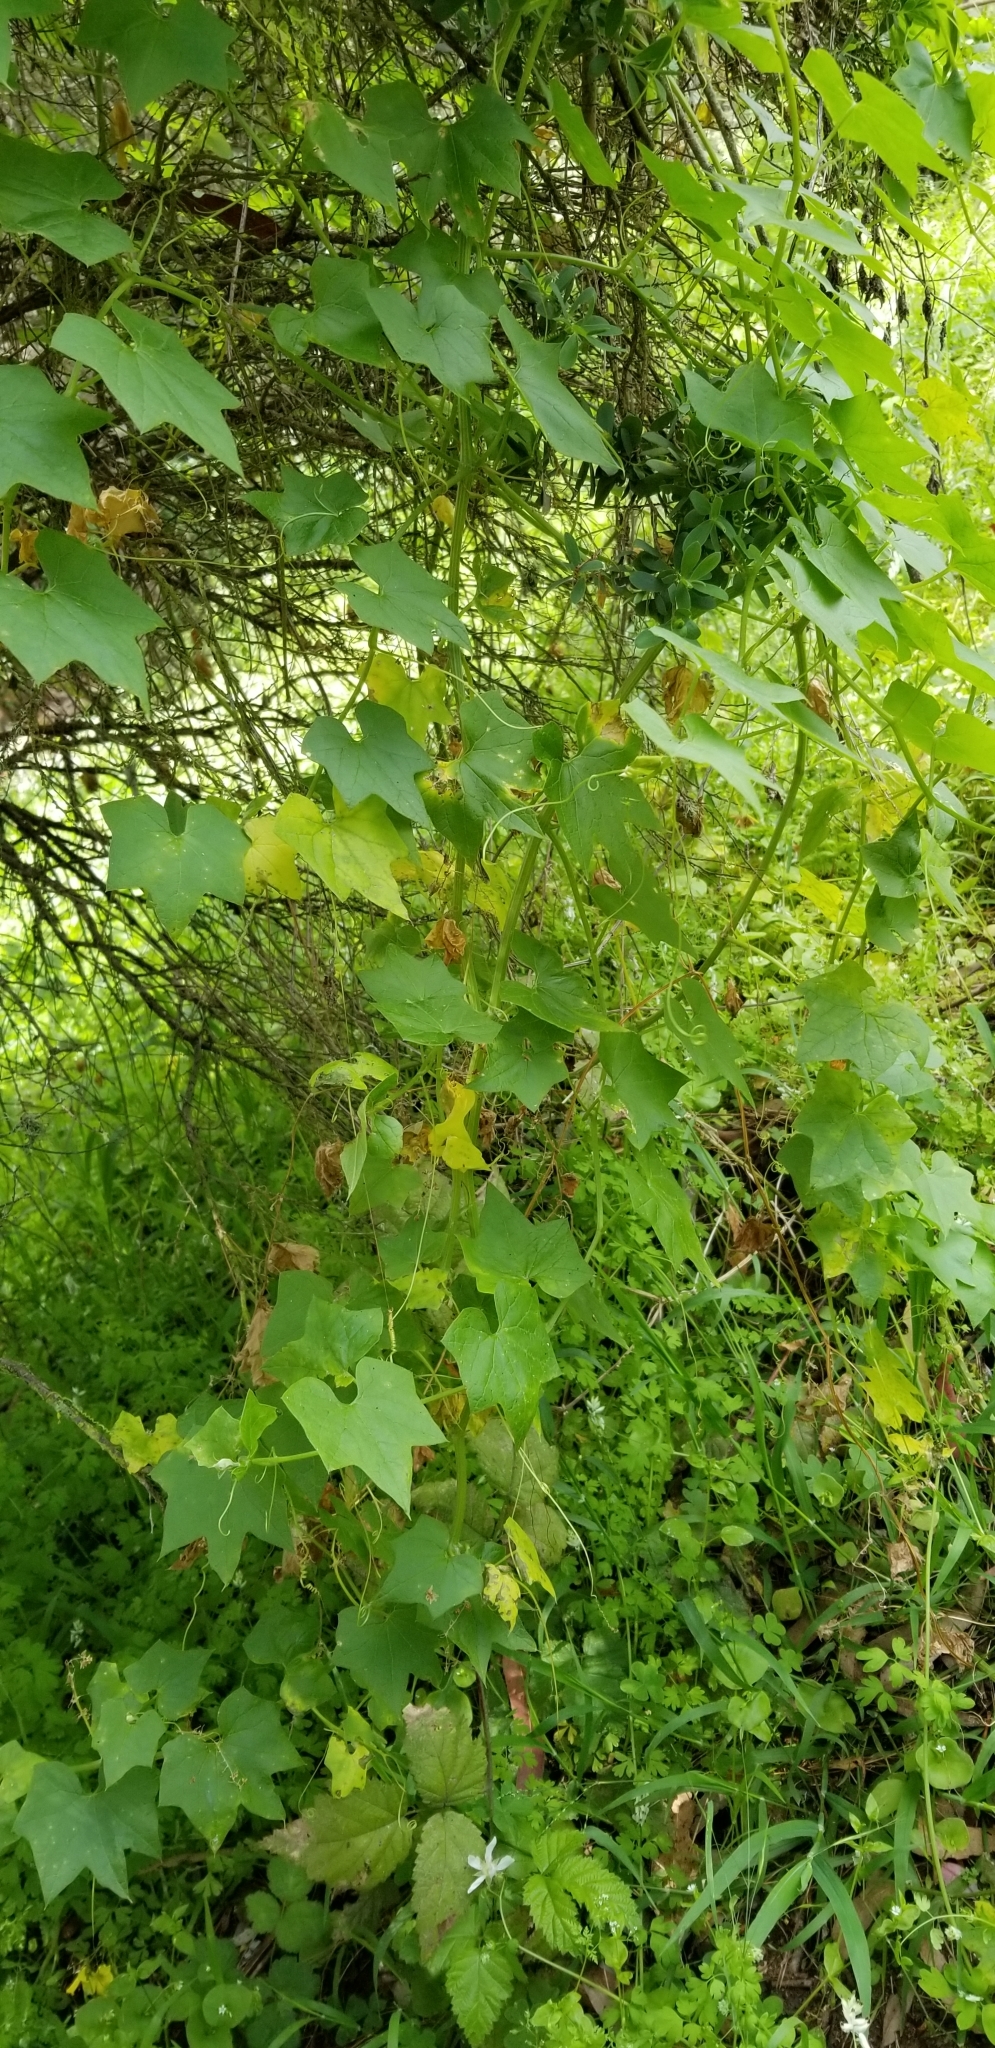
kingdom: Plantae
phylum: Tracheophyta
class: Magnoliopsida
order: Cucurbitales
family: Cucurbitaceae
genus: Marah
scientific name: Marah fabacea
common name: California manroot
